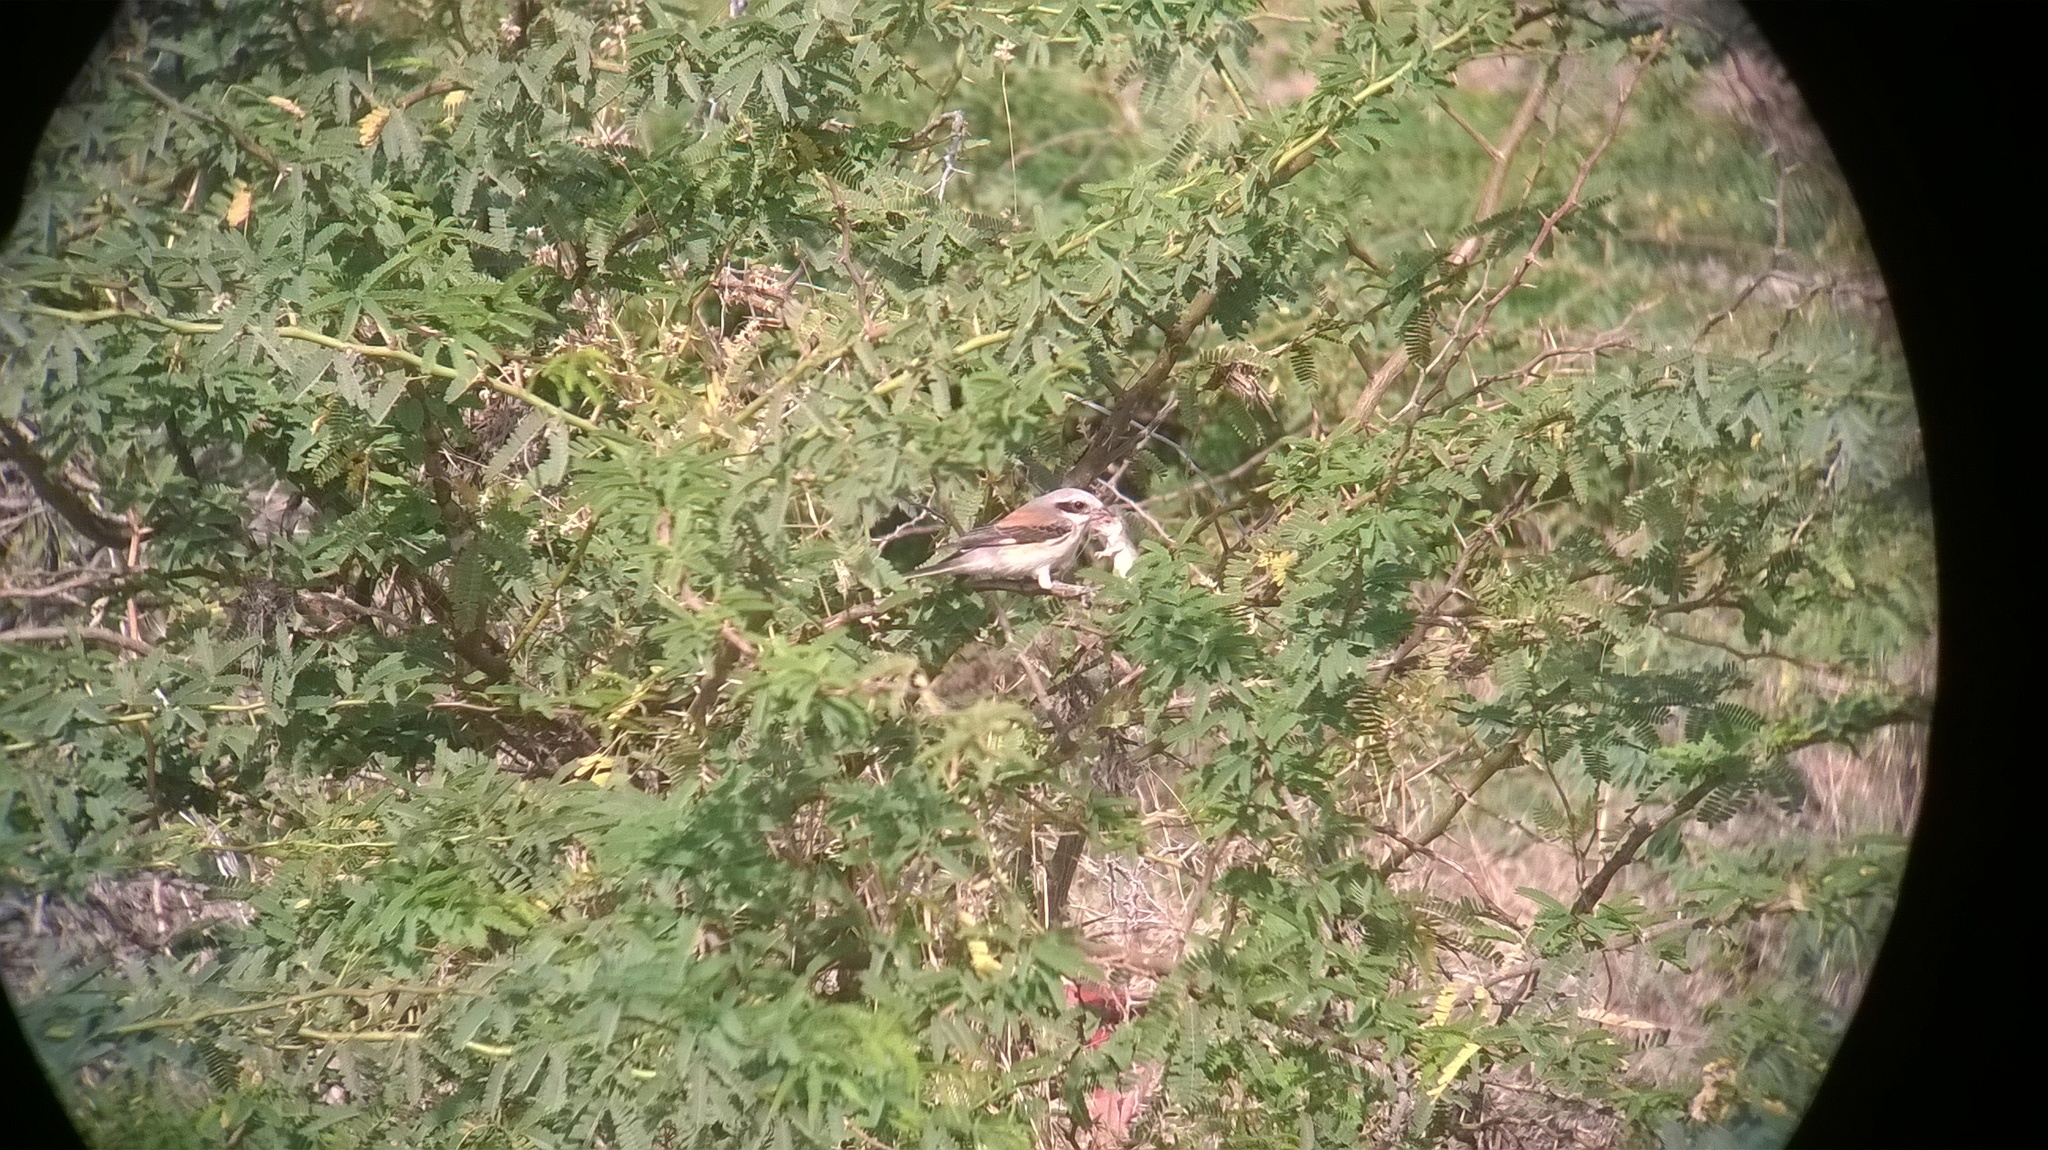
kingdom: Animalia
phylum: Chordata
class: Aves
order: Passeriformes
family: Laniidae
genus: Lanius
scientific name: Lanius vittatus
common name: Bay-backed shrike
